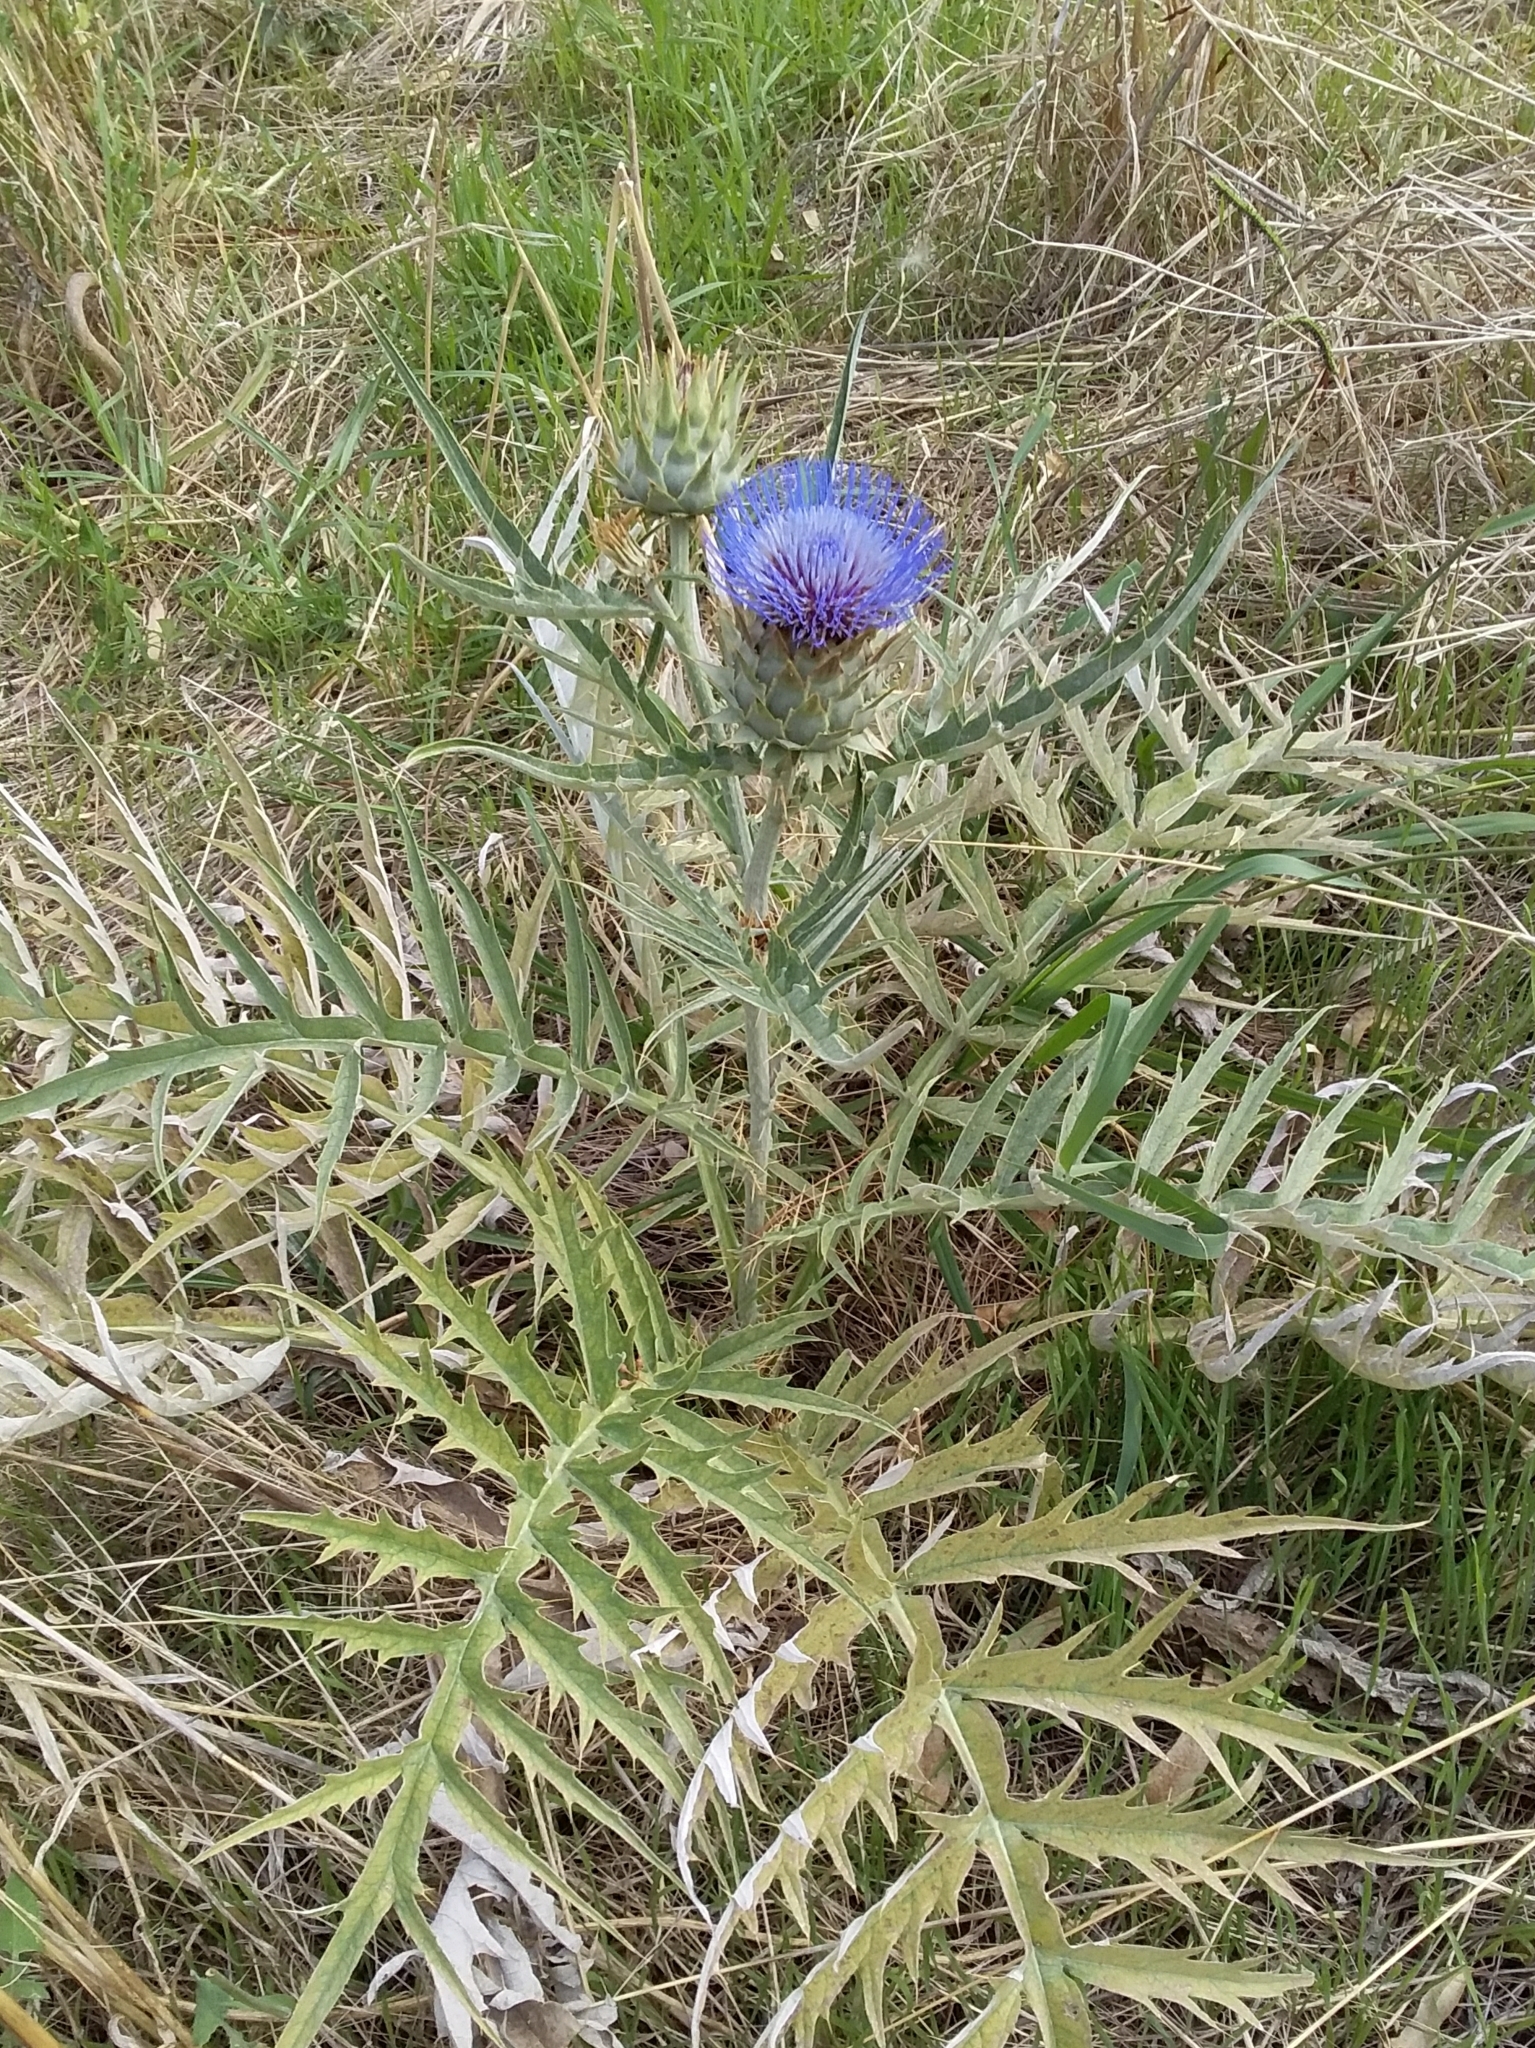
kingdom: Plantae
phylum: Tracheophyta
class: Magnoliopsida
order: Asterales
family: Asteraceae
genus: Cynara
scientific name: Cynara cardunculus
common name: Globe artichoke
